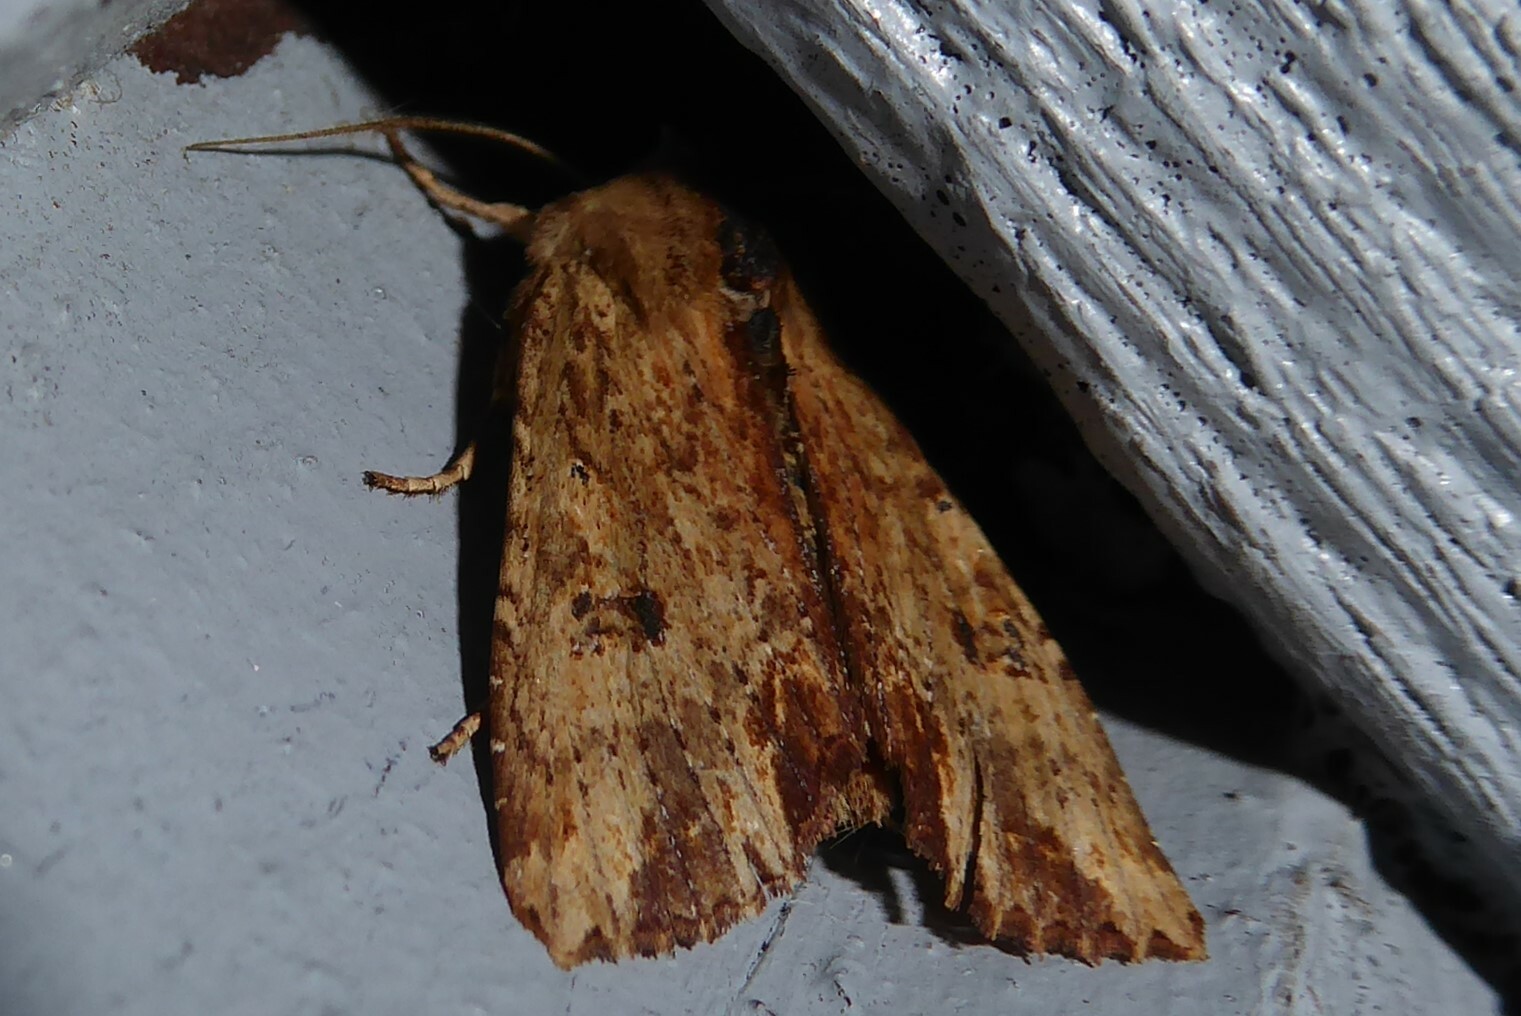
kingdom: Animalia
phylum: Arthropoda
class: Insecta
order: Lepidoptera
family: Noctuidae
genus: Ichneutica
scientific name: Ichneutica
